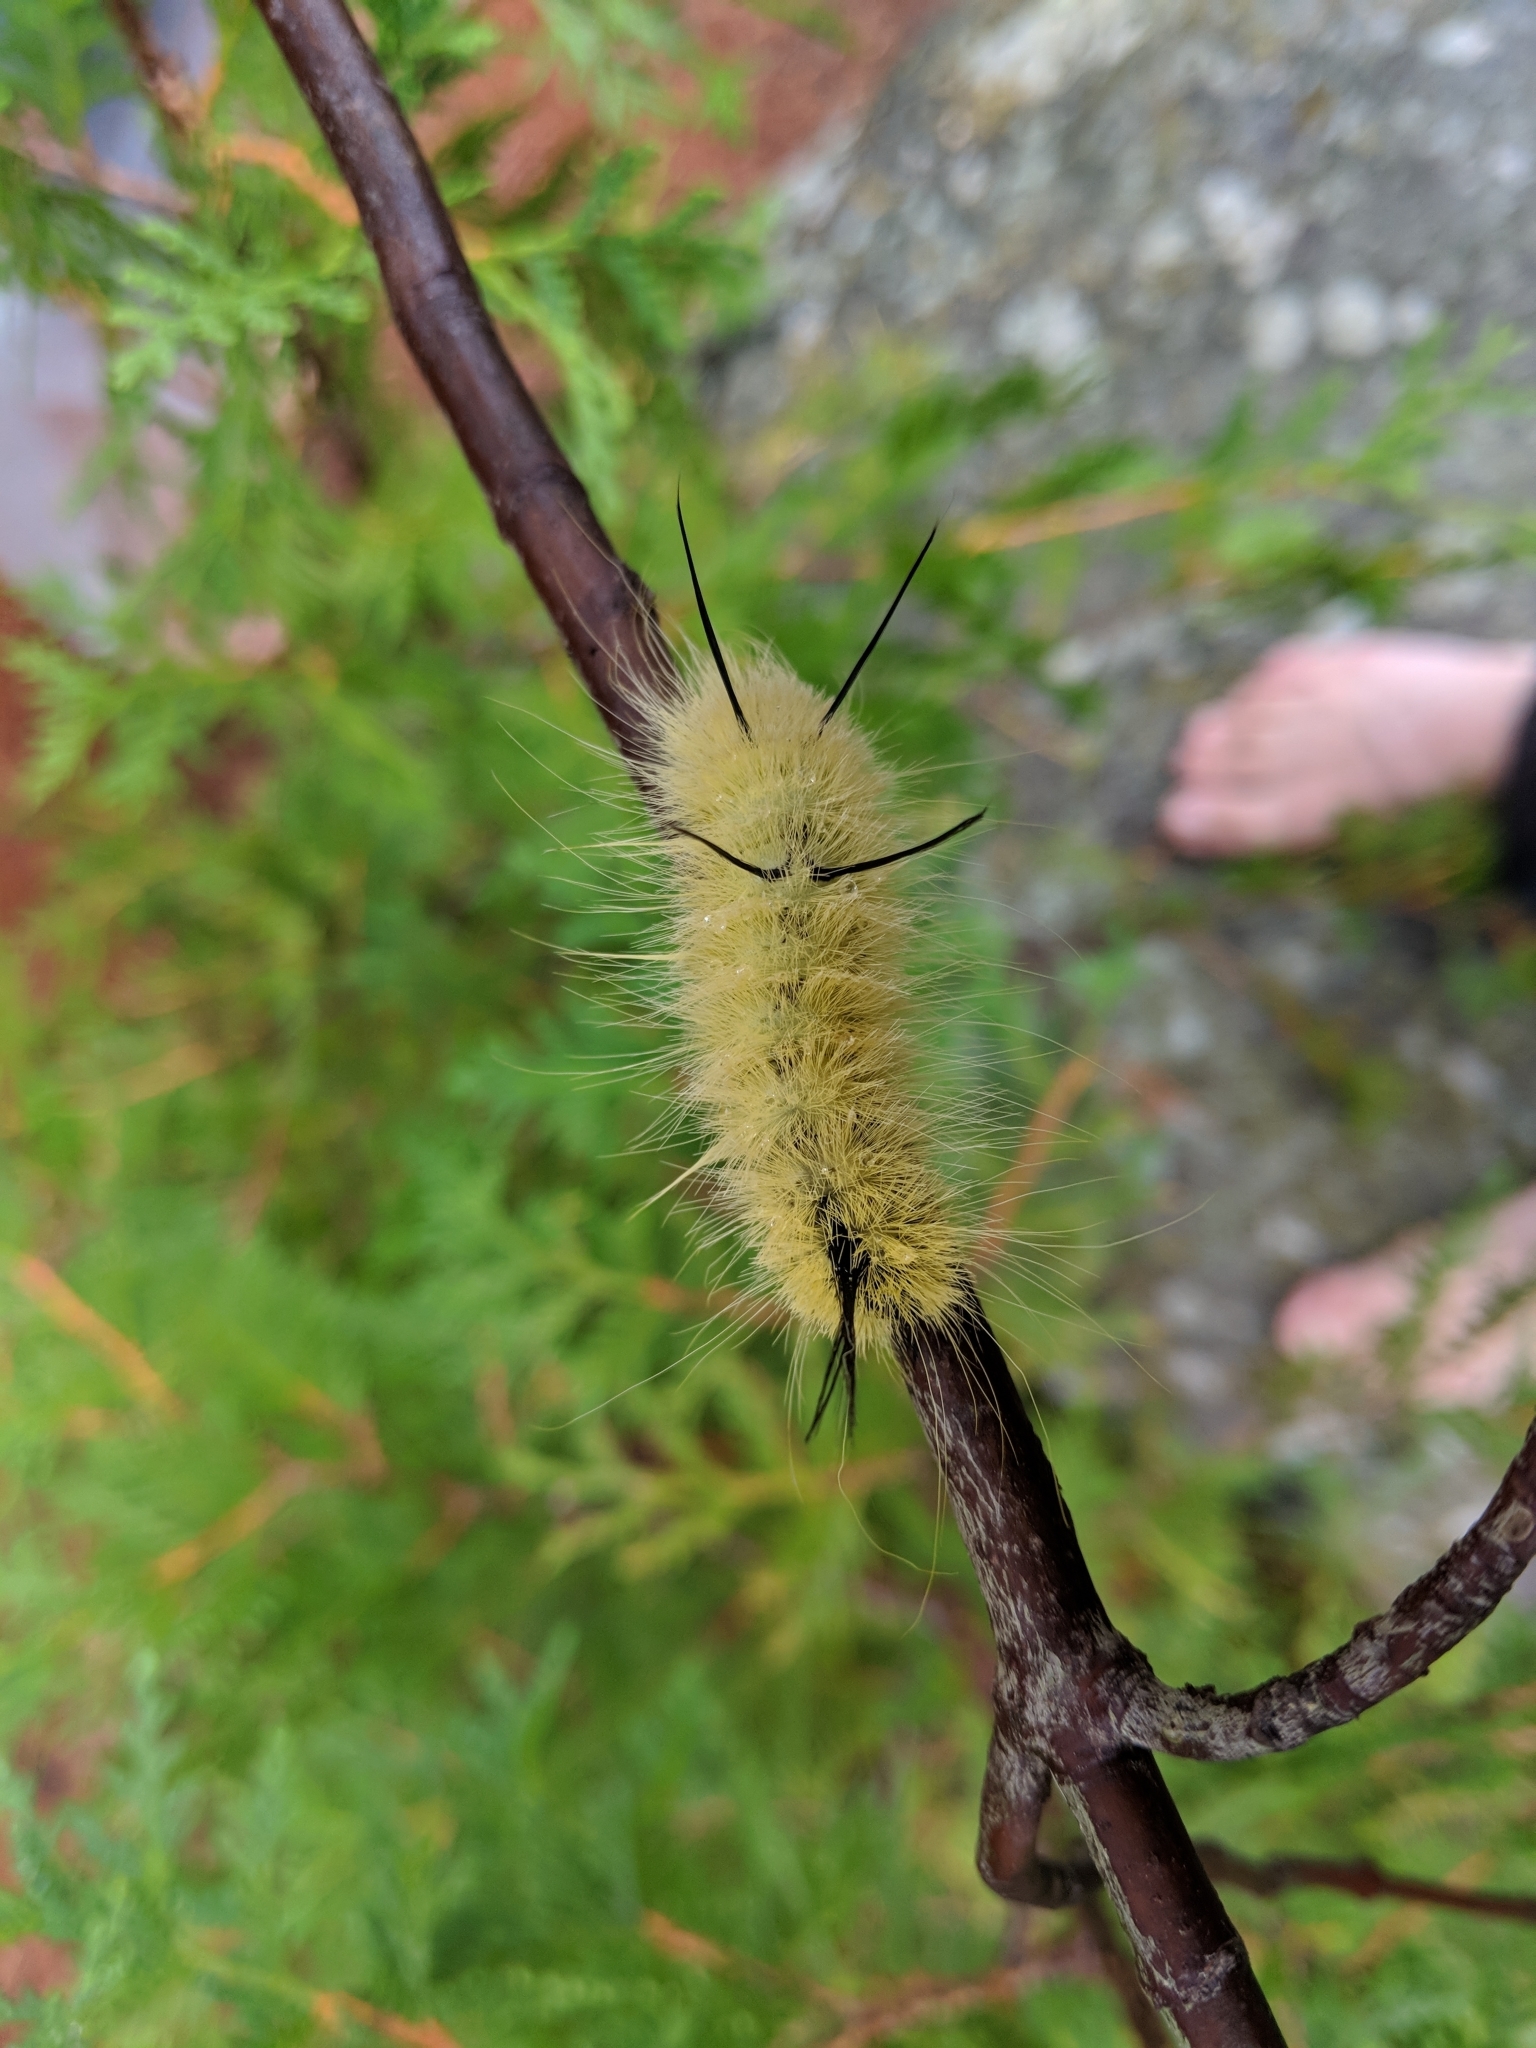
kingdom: Animalia
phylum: Arthropoda
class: Insecta
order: Lepidoptera
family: Noctuidae
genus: Acronicta
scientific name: Acronicta americana
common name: American dagger
